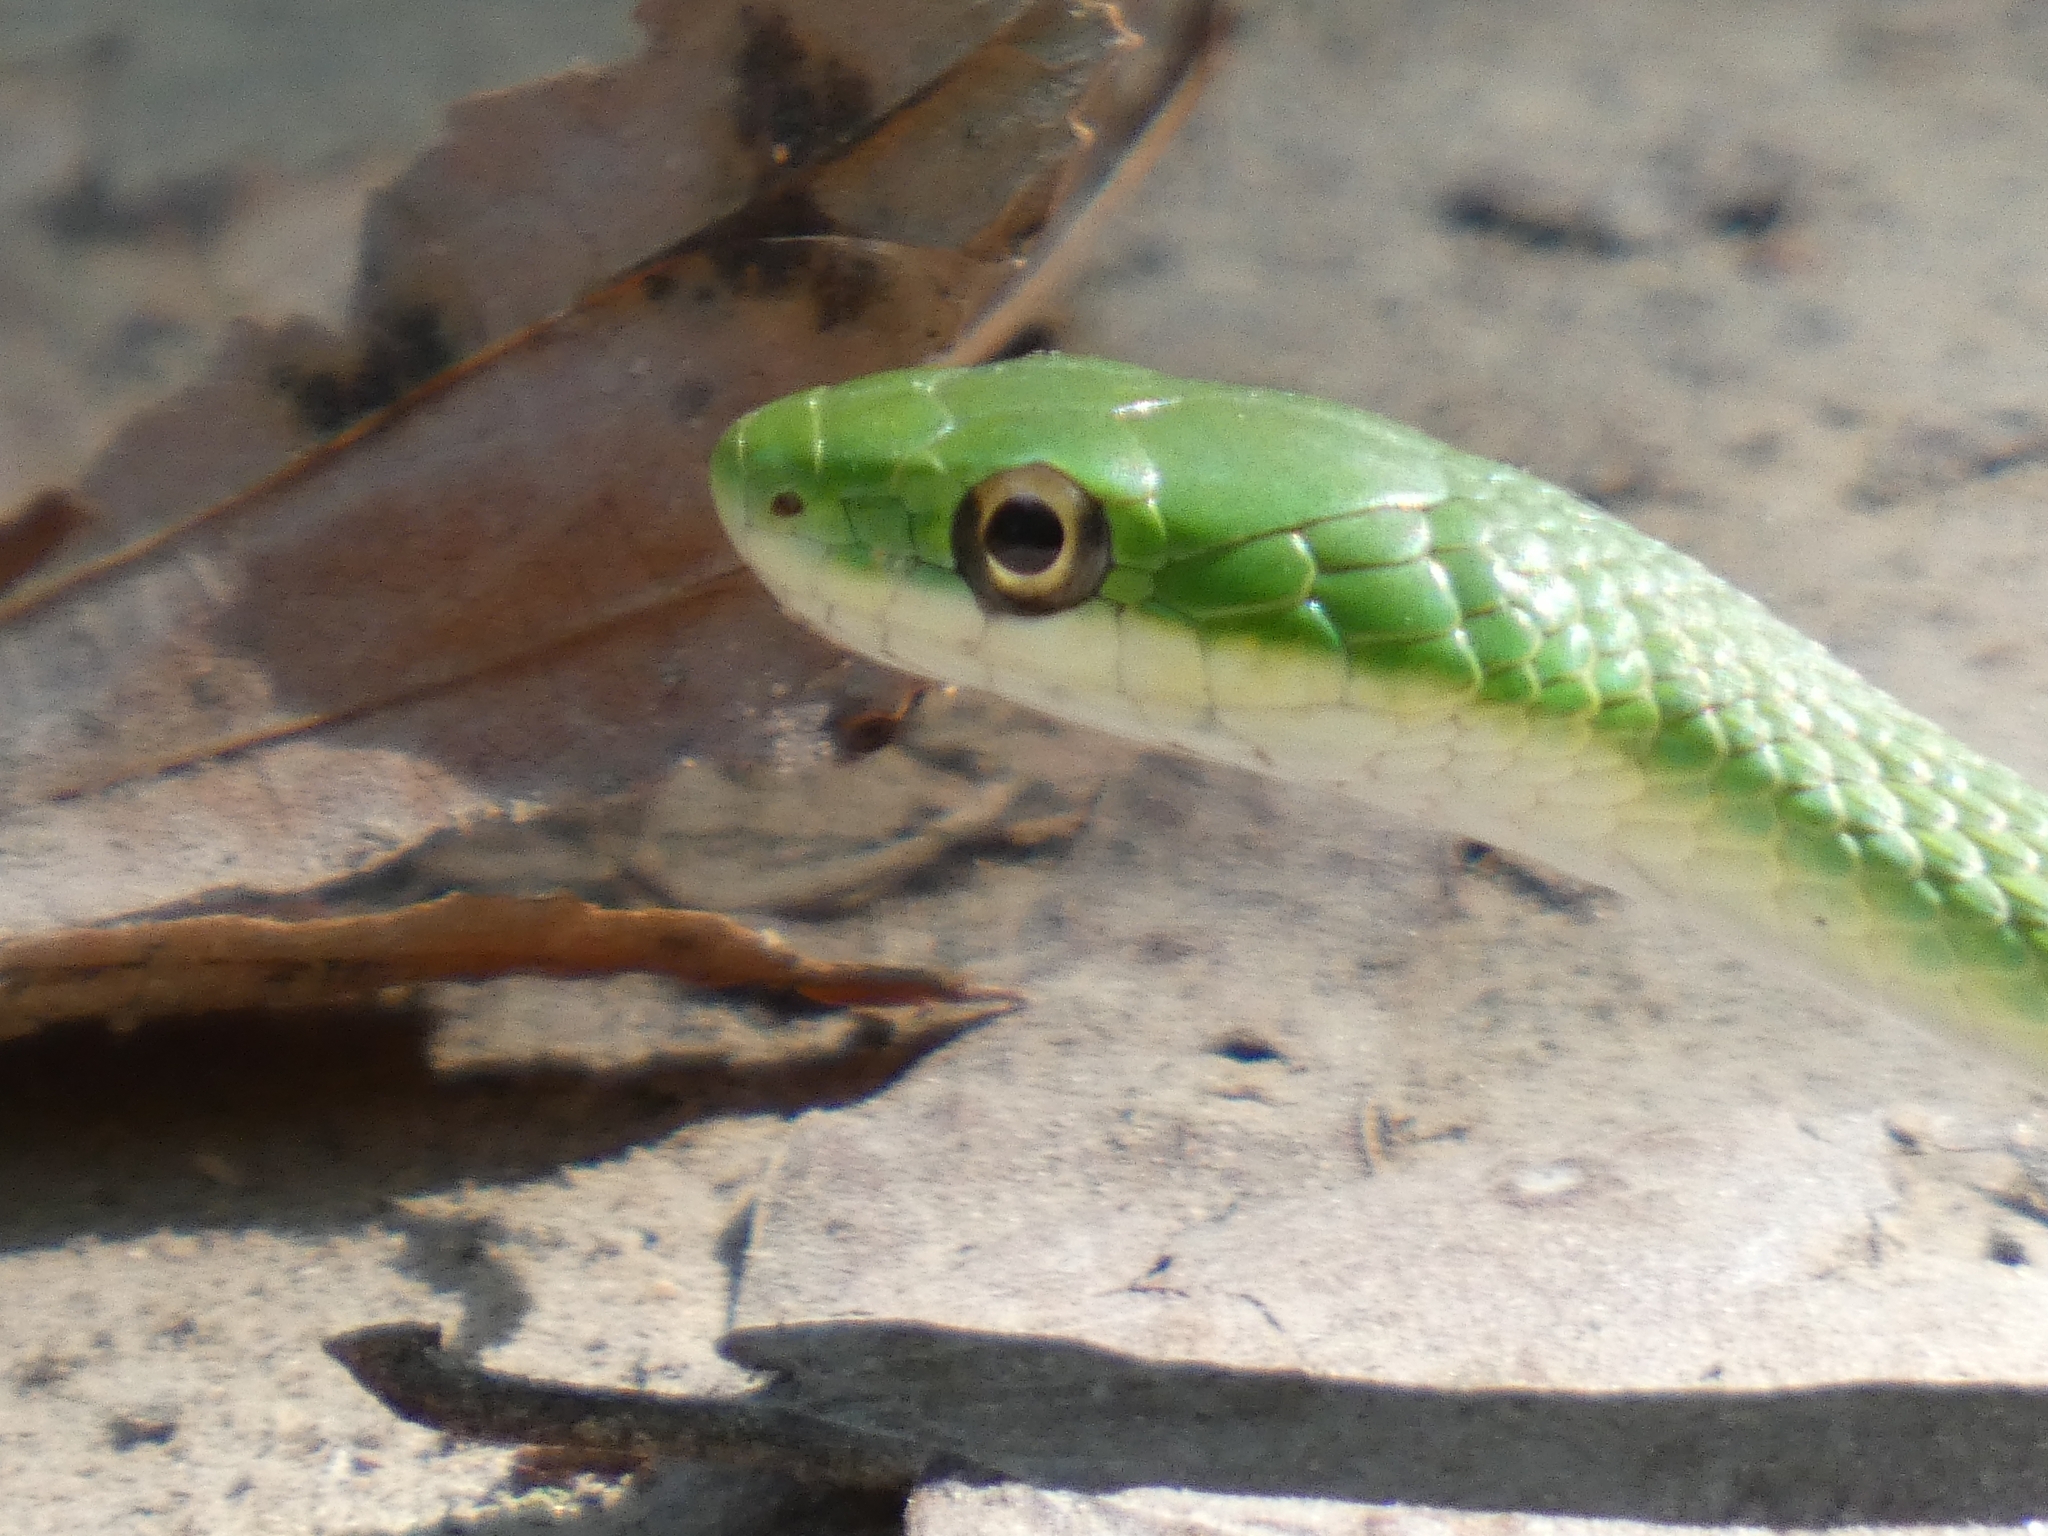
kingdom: Animalia
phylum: Chordata
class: Squamata
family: Colubridae
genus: Opheodrys
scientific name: Opheodrys aestivus
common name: Rough greensnake
